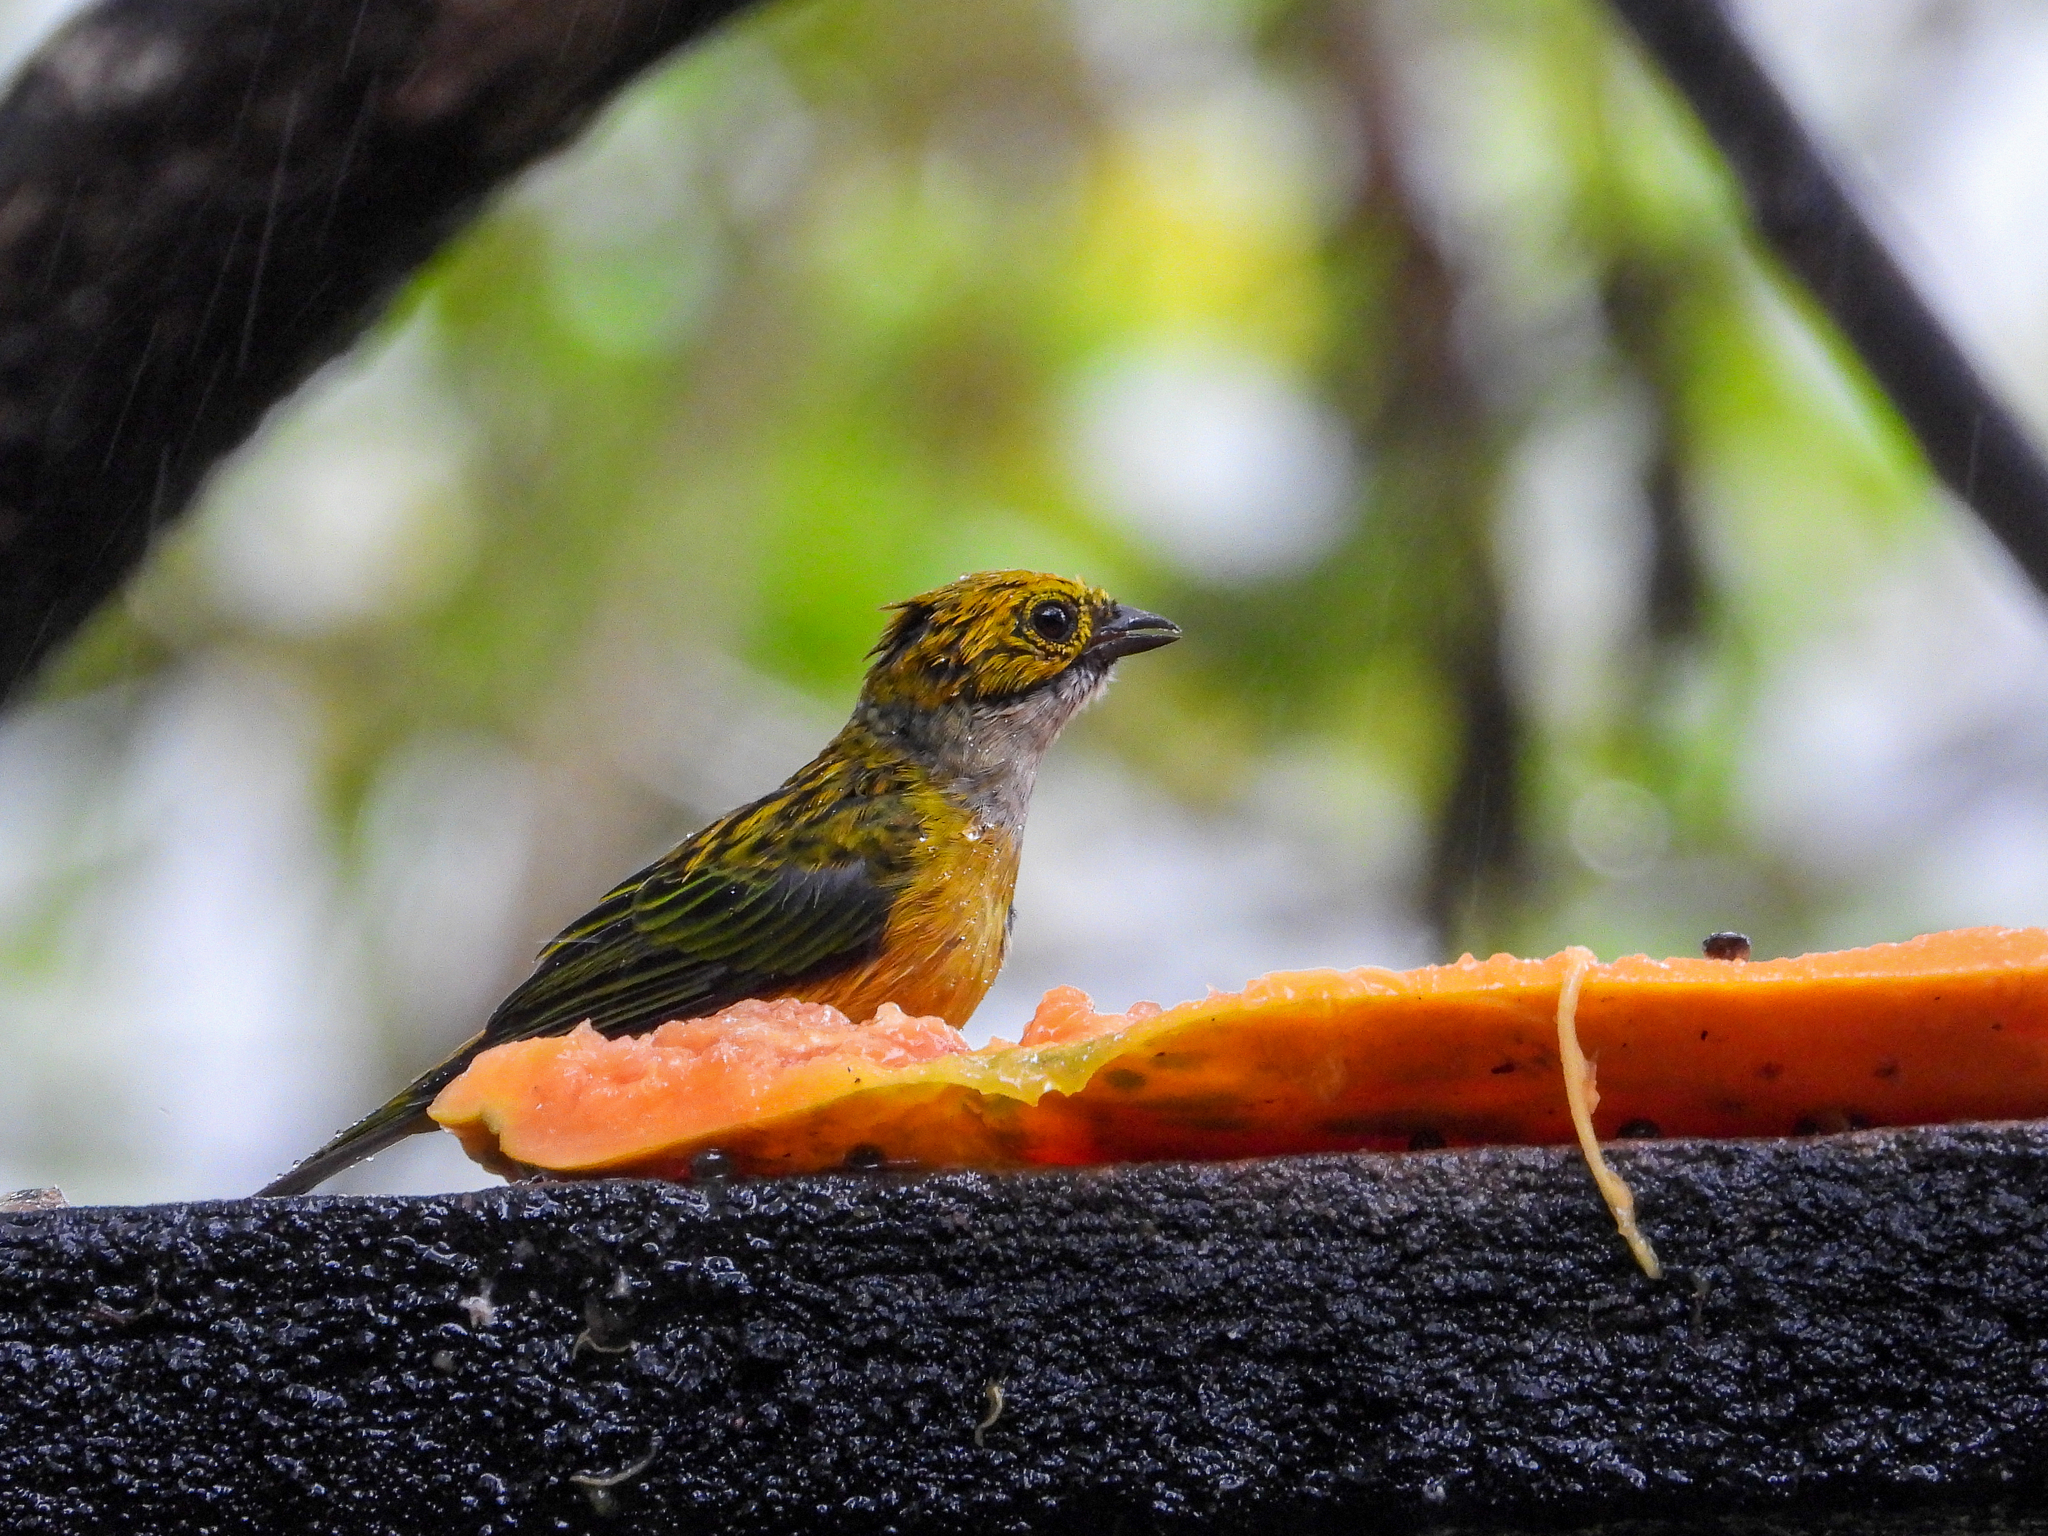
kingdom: Animalia
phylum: Chordata
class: Aves
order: Passeriformes
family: Thraupidae
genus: Tangara
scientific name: Tangara icterocephala
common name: Silver-throated tanager
